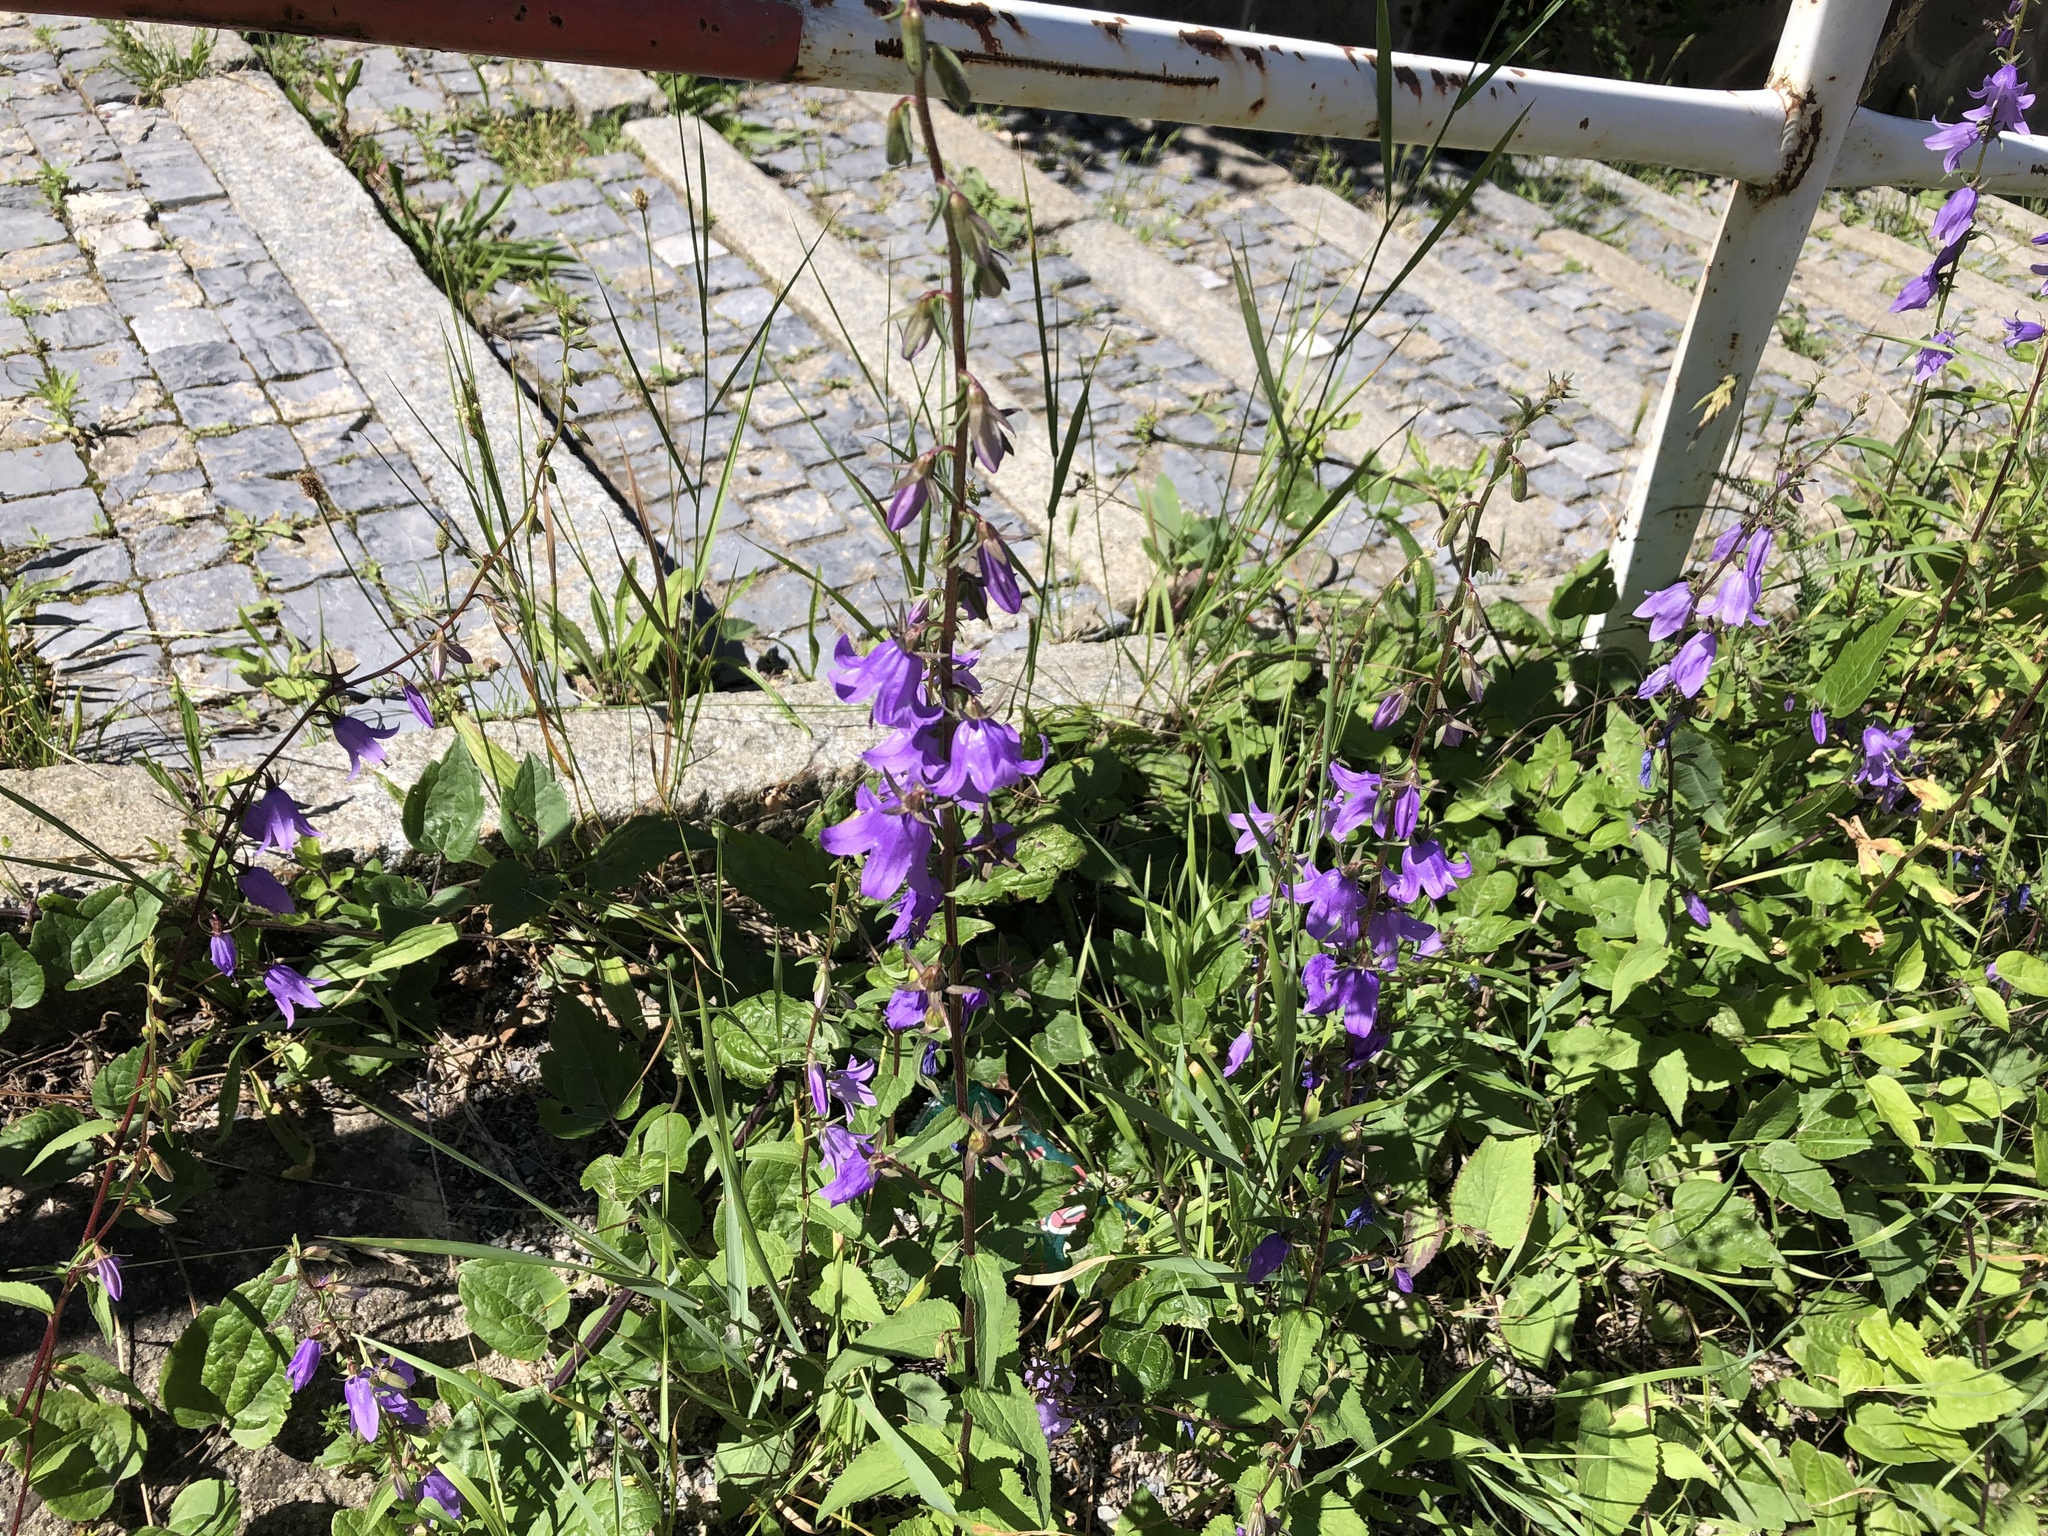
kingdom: Plantae
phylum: Tracheophyta
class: Magnoliopsida
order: Asterales
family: Campanulaceae
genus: Campanula
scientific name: Campanula rapunculoides
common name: Creeping bellflower
